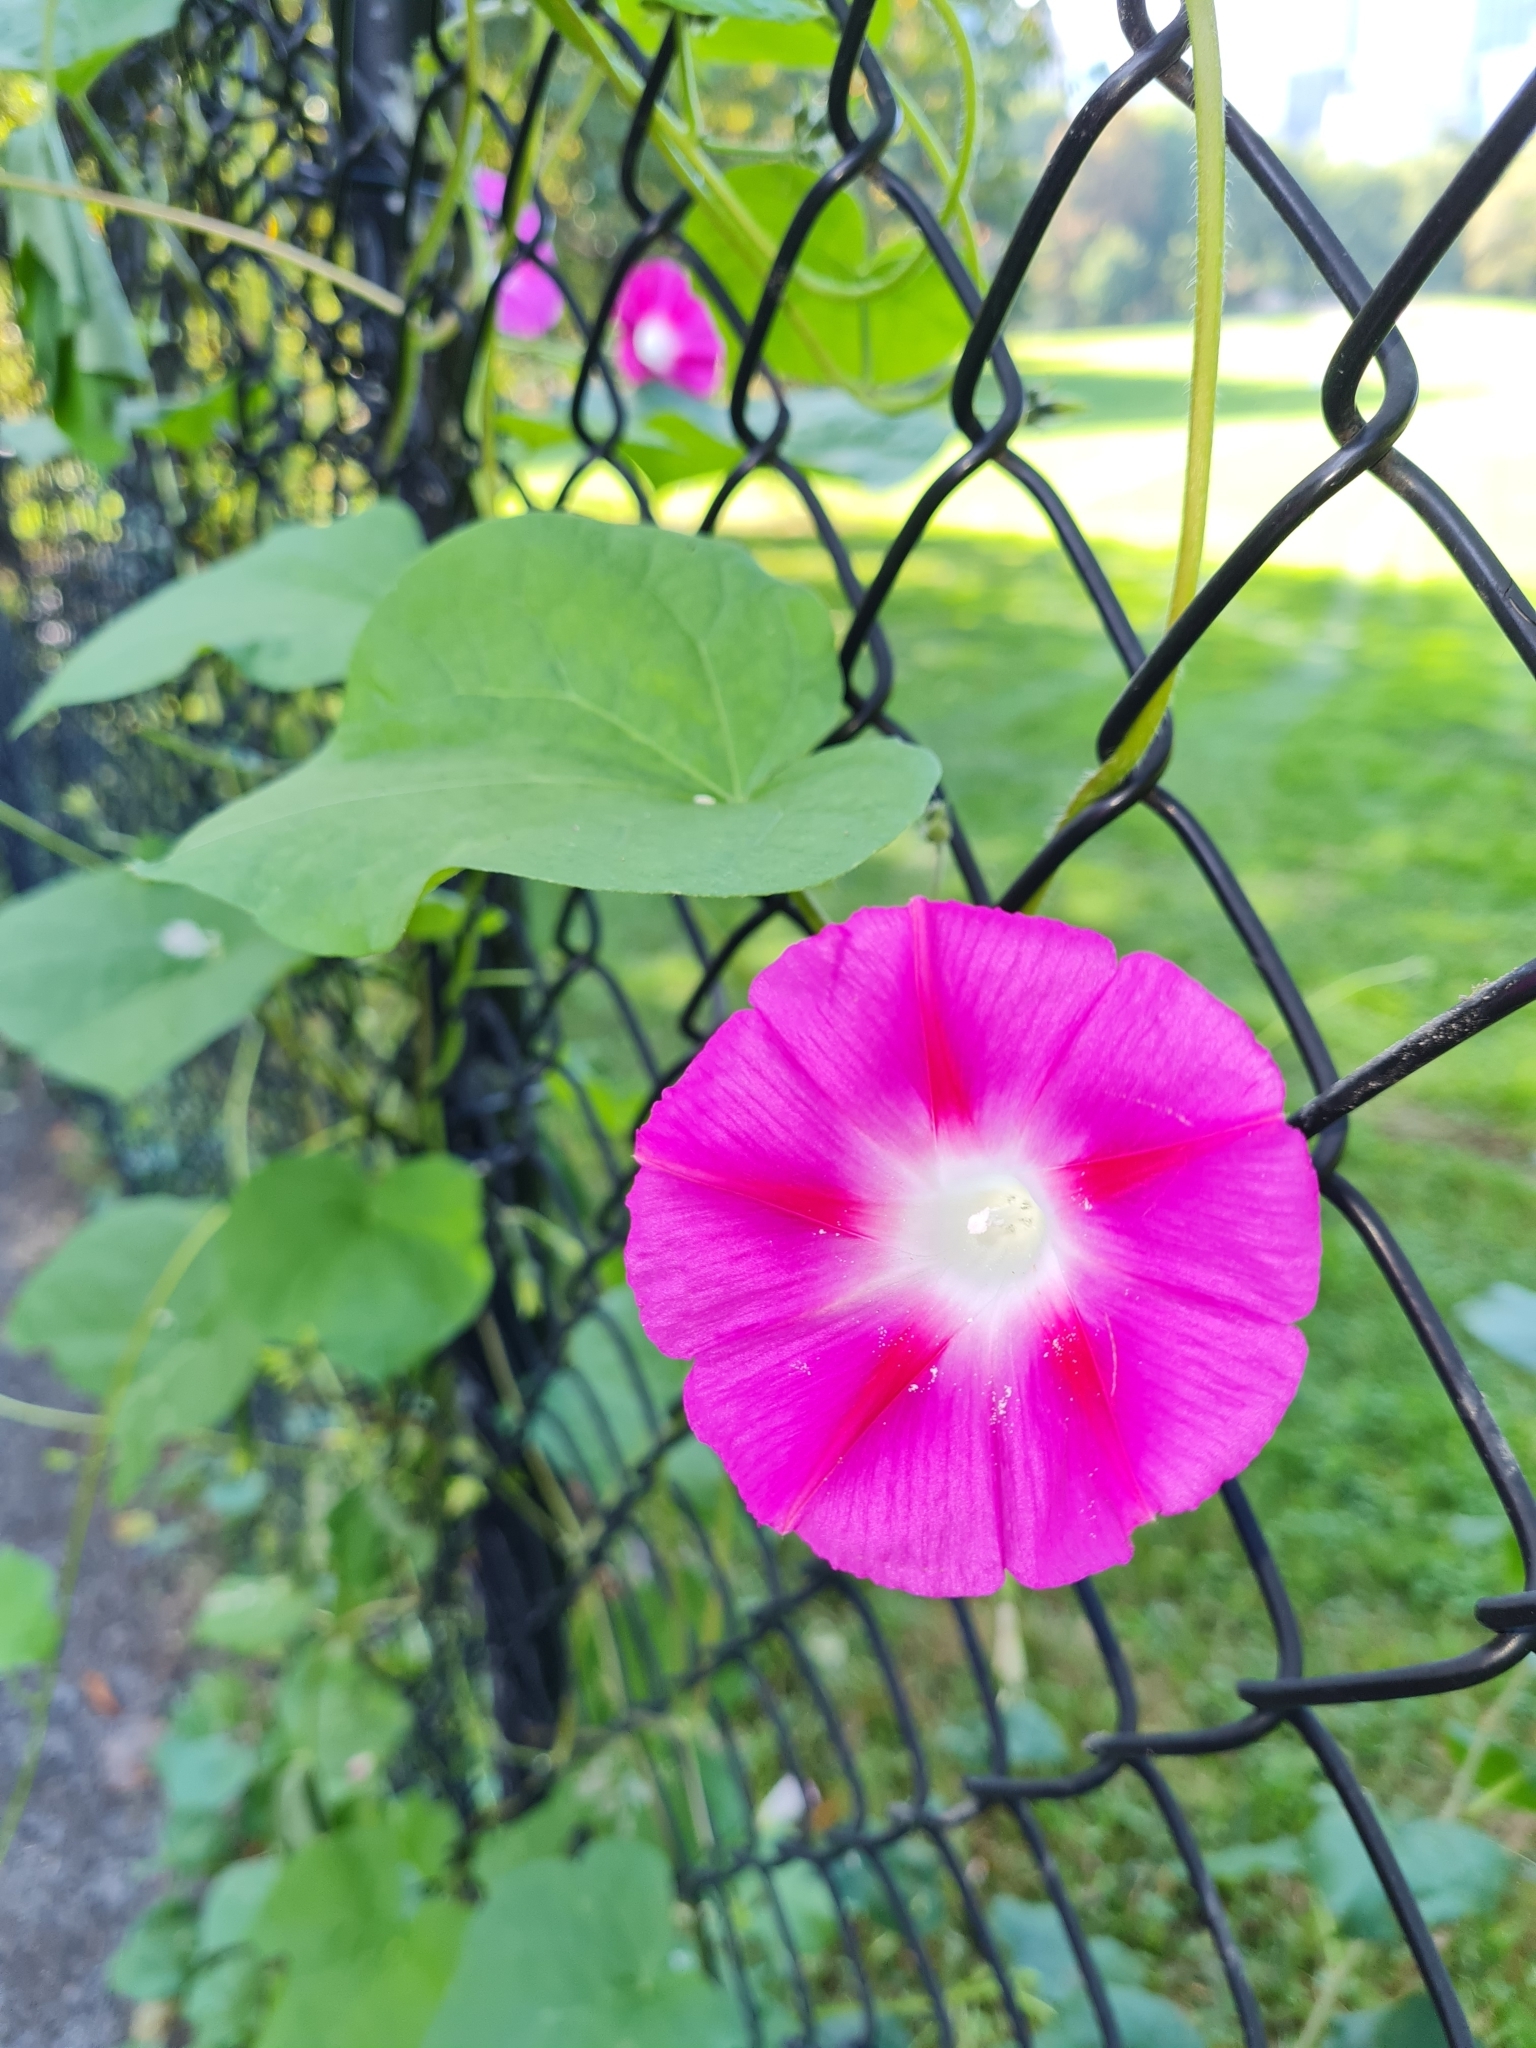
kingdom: Plantae
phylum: Tracheophyta
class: Magnoliopsida
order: Solanales
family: Convolvulaceae
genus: Ipomoea
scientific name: Ipomoea purpurea
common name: Common morning-glory
